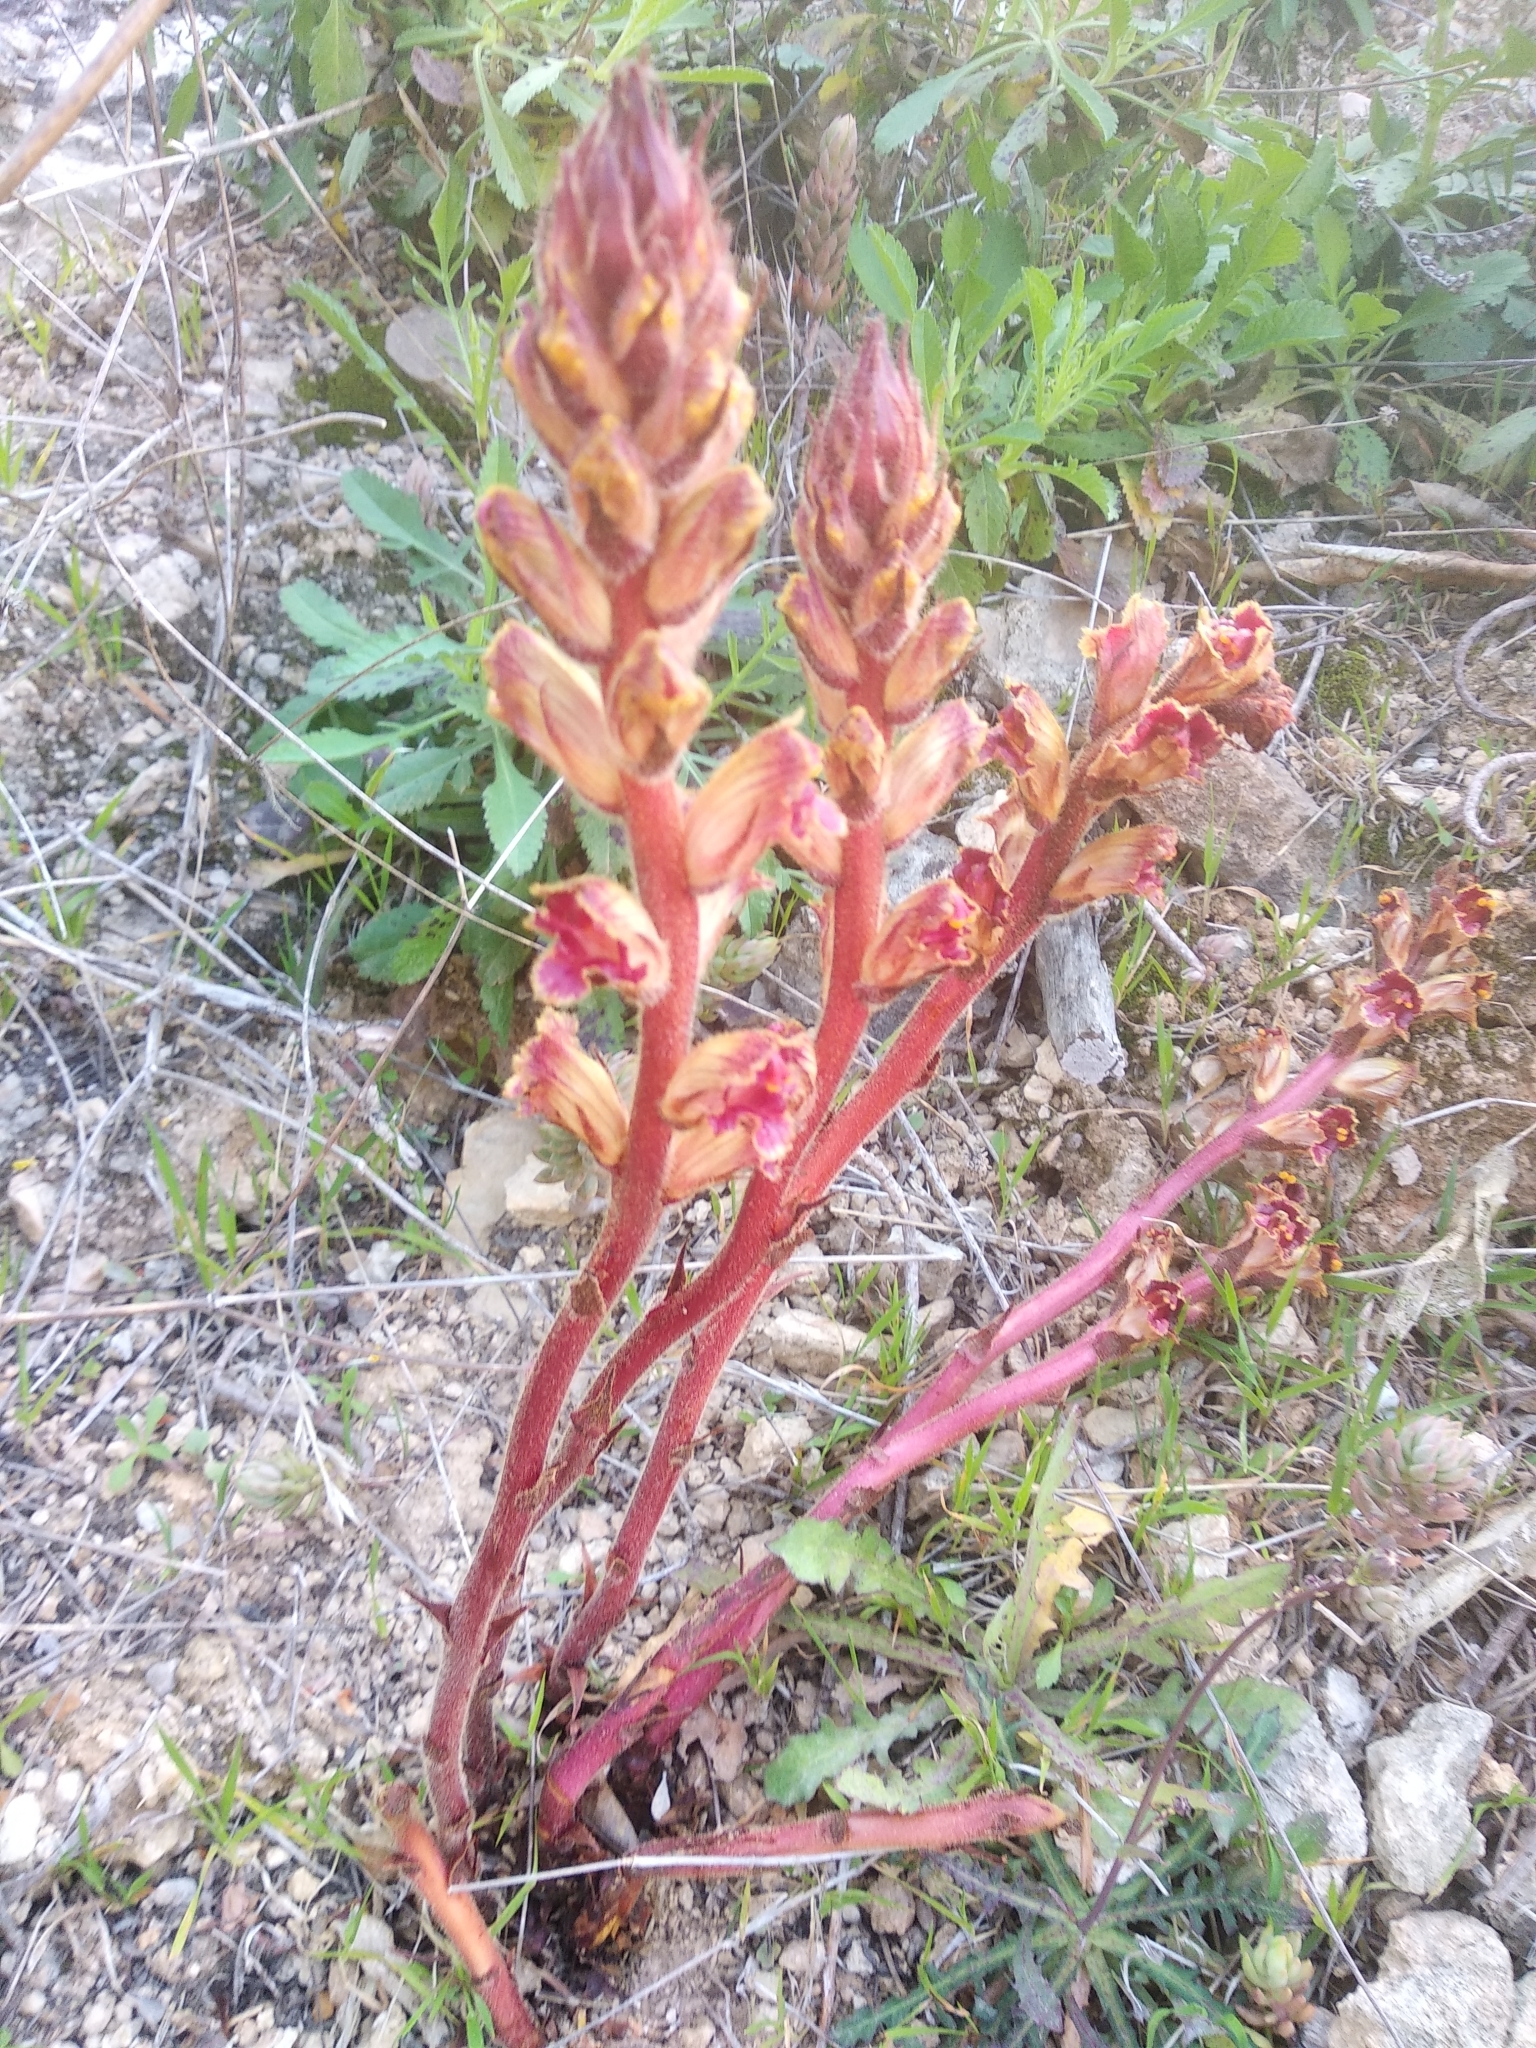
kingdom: Plantae
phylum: Tracheophyta
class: Magnoliopsida
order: Lamiales
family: Orobanchaceae
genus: Orobanche
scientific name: Orobanche gracilis
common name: Slender broomrape
